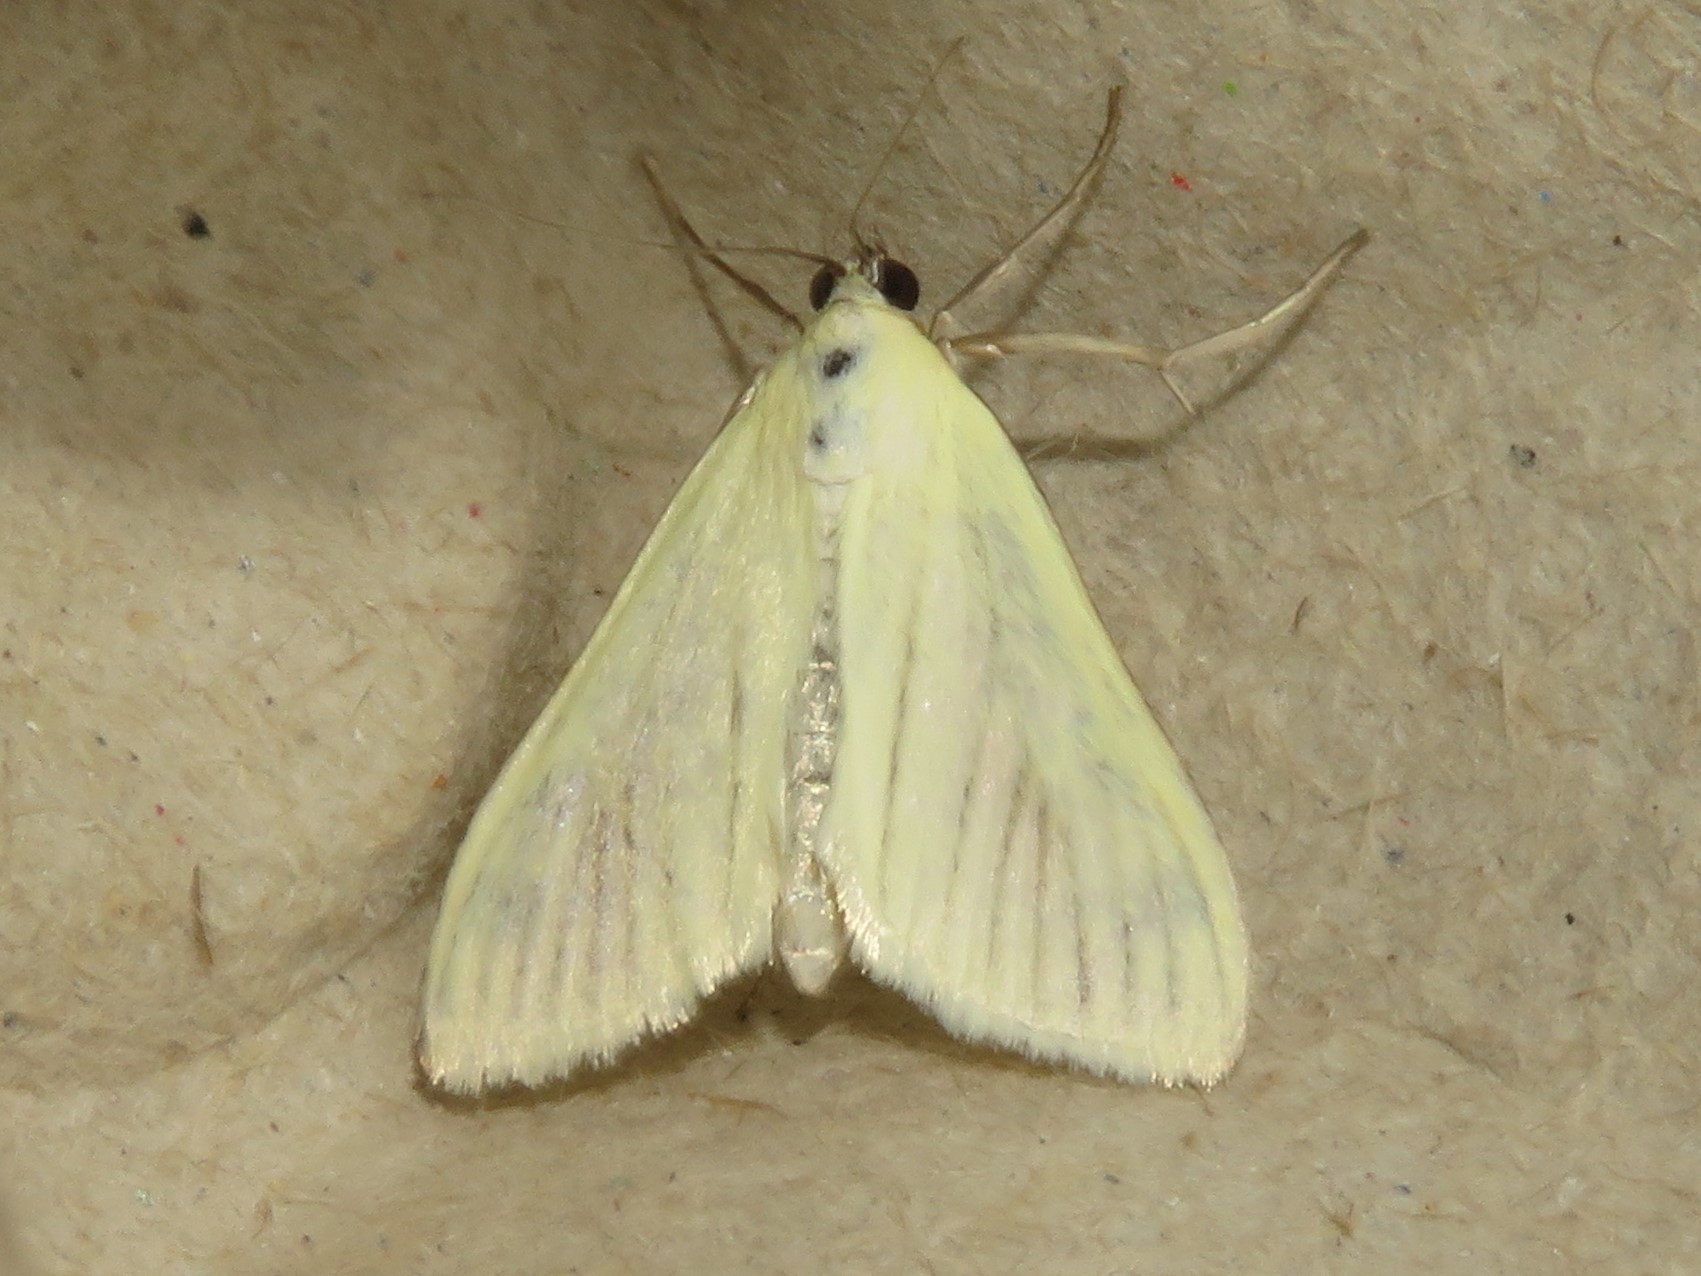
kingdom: Animalia
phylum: Arthropoda
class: Insecta
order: Lepidoptera
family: Crambidae
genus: Sitochroa
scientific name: Sitochroa palealis
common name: Greenish-yellow sitochroa moth
